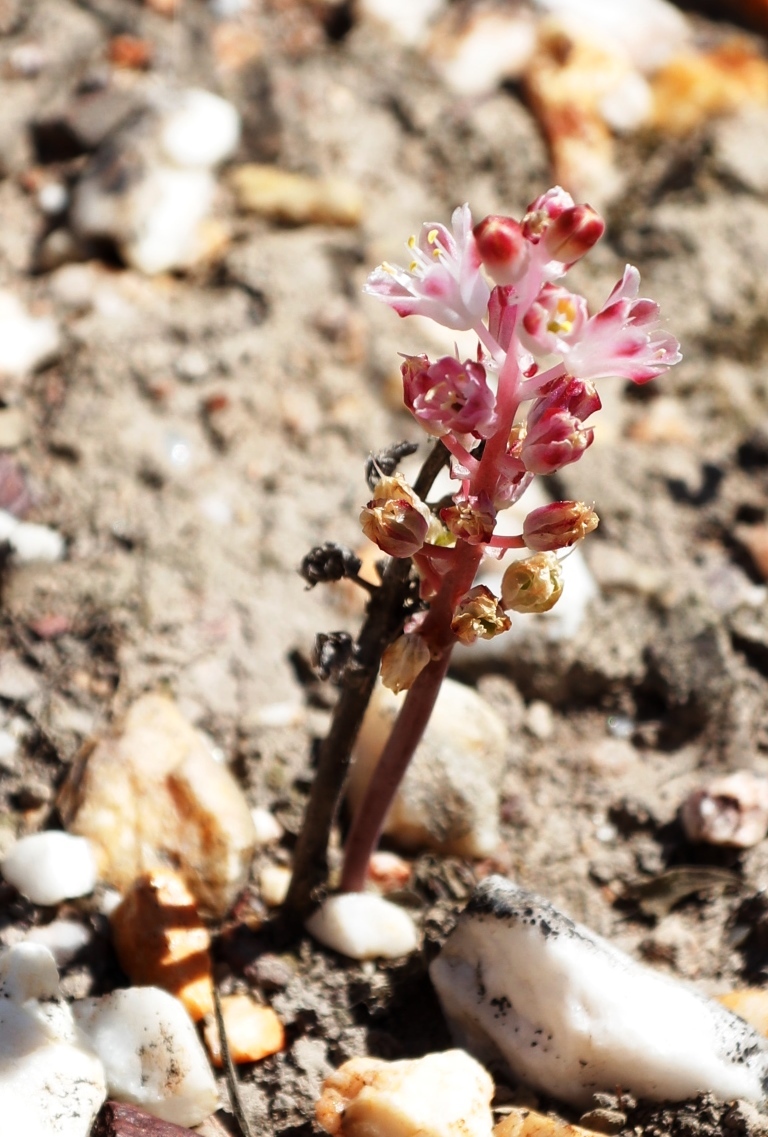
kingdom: Plantae
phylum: Tracheophyta
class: Liliopsida
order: Asparagales
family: Asparagaceae
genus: Lachenalia
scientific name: Lachenalia barbarae
